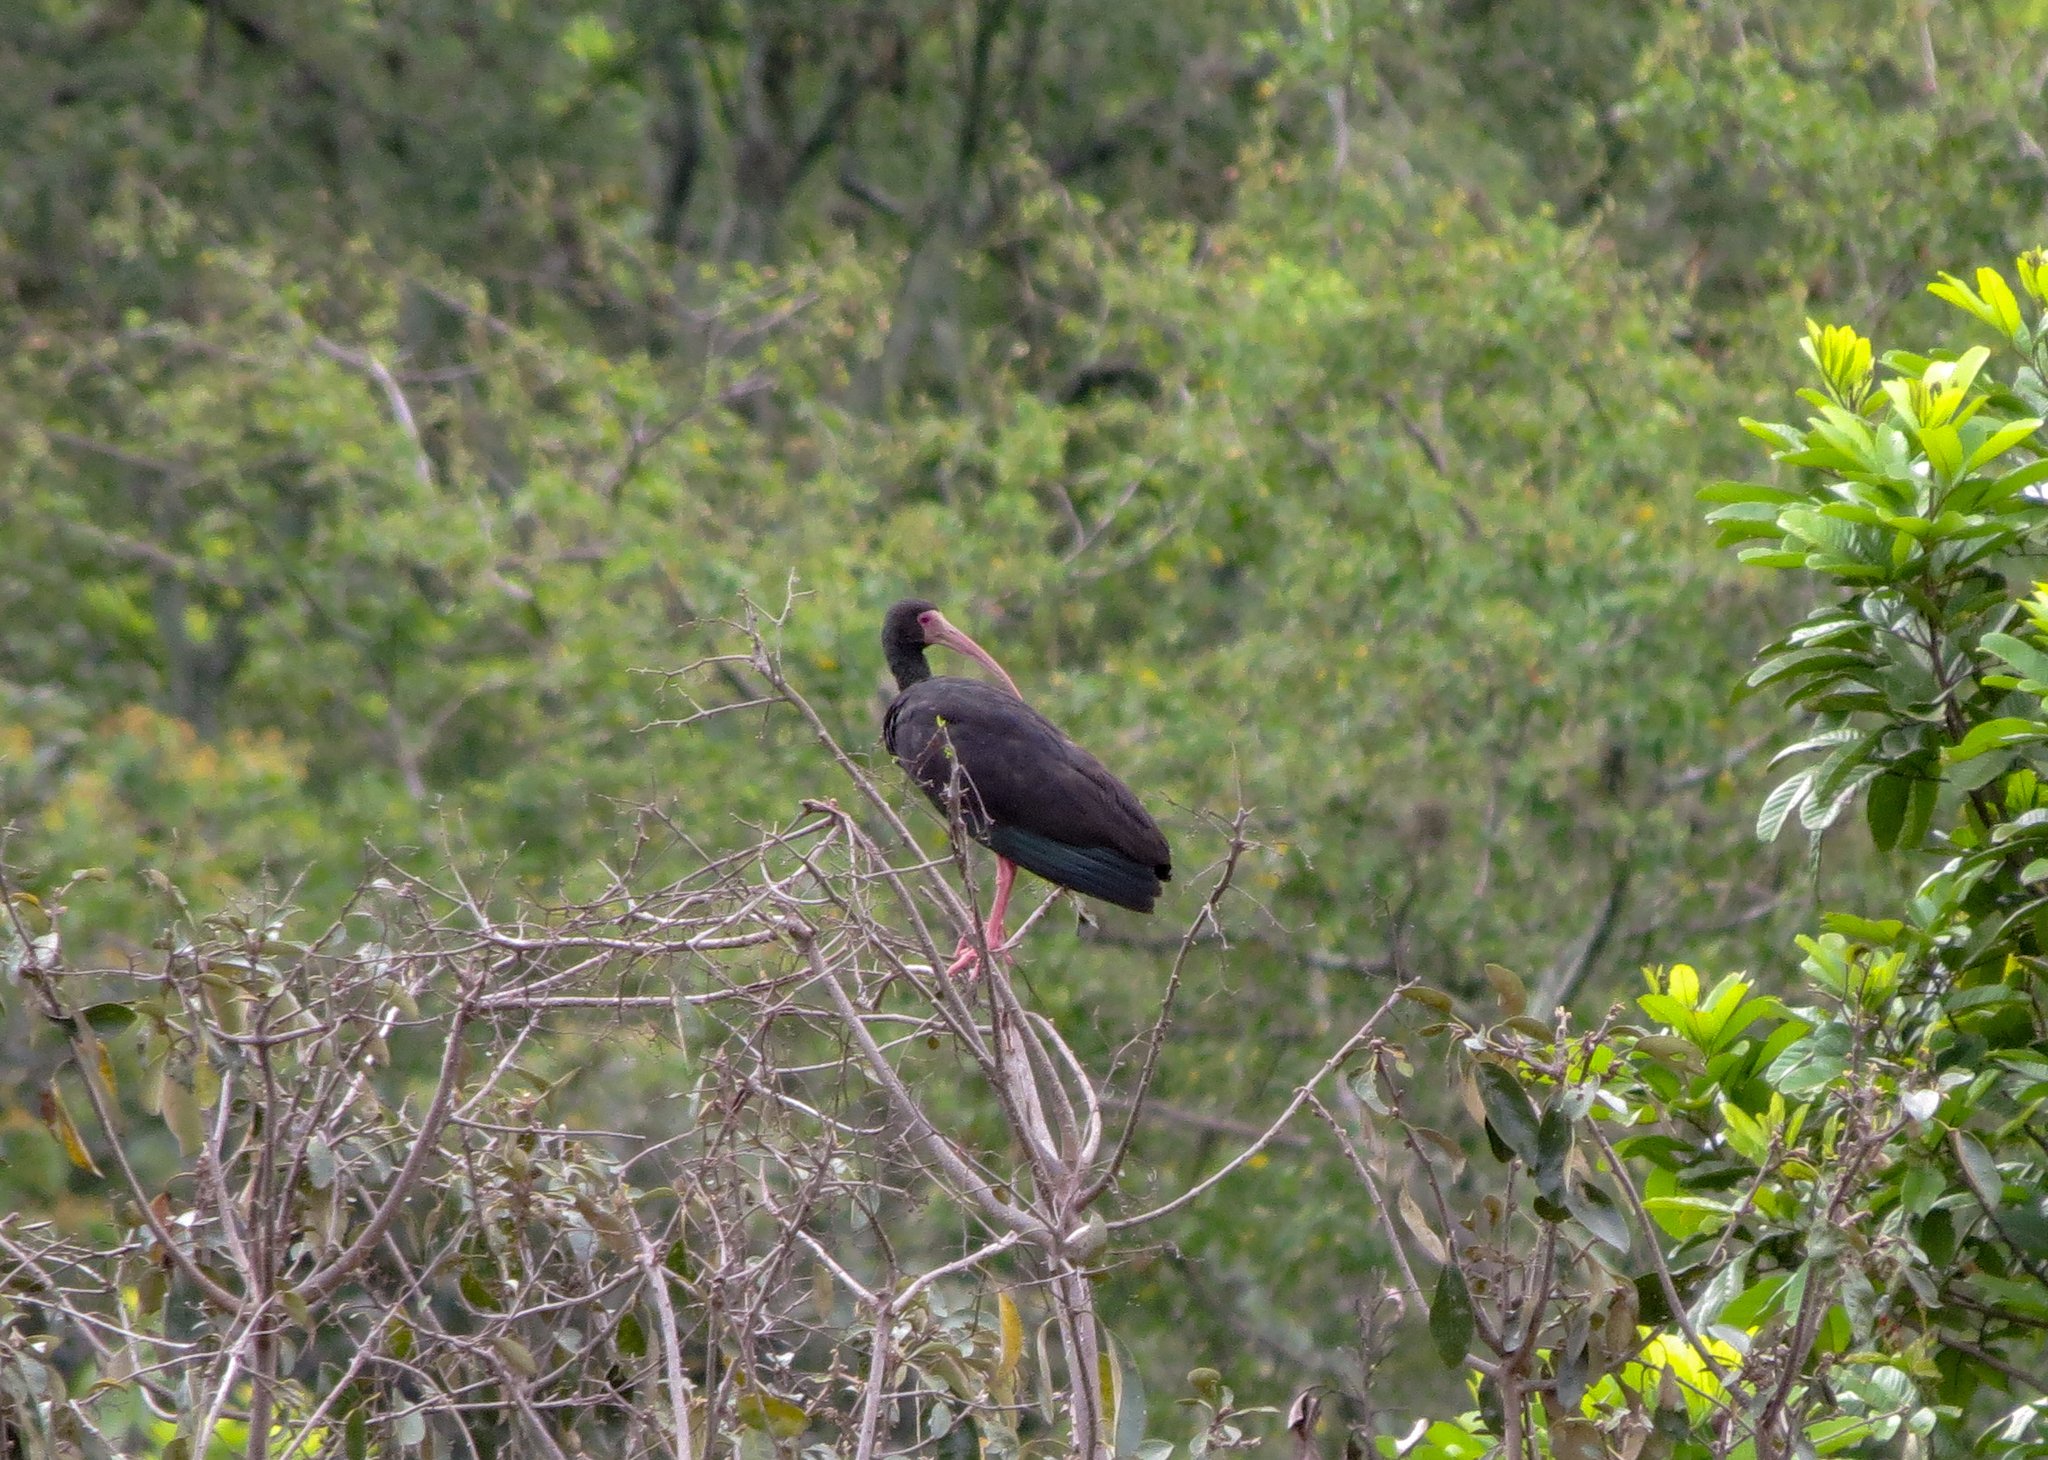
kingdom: Animalia
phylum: Chordata
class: Aves
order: Pelecaniformes
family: Threskiornithidae
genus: Phimosus
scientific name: Phimosus infuscatus
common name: Bare-faced ibis
